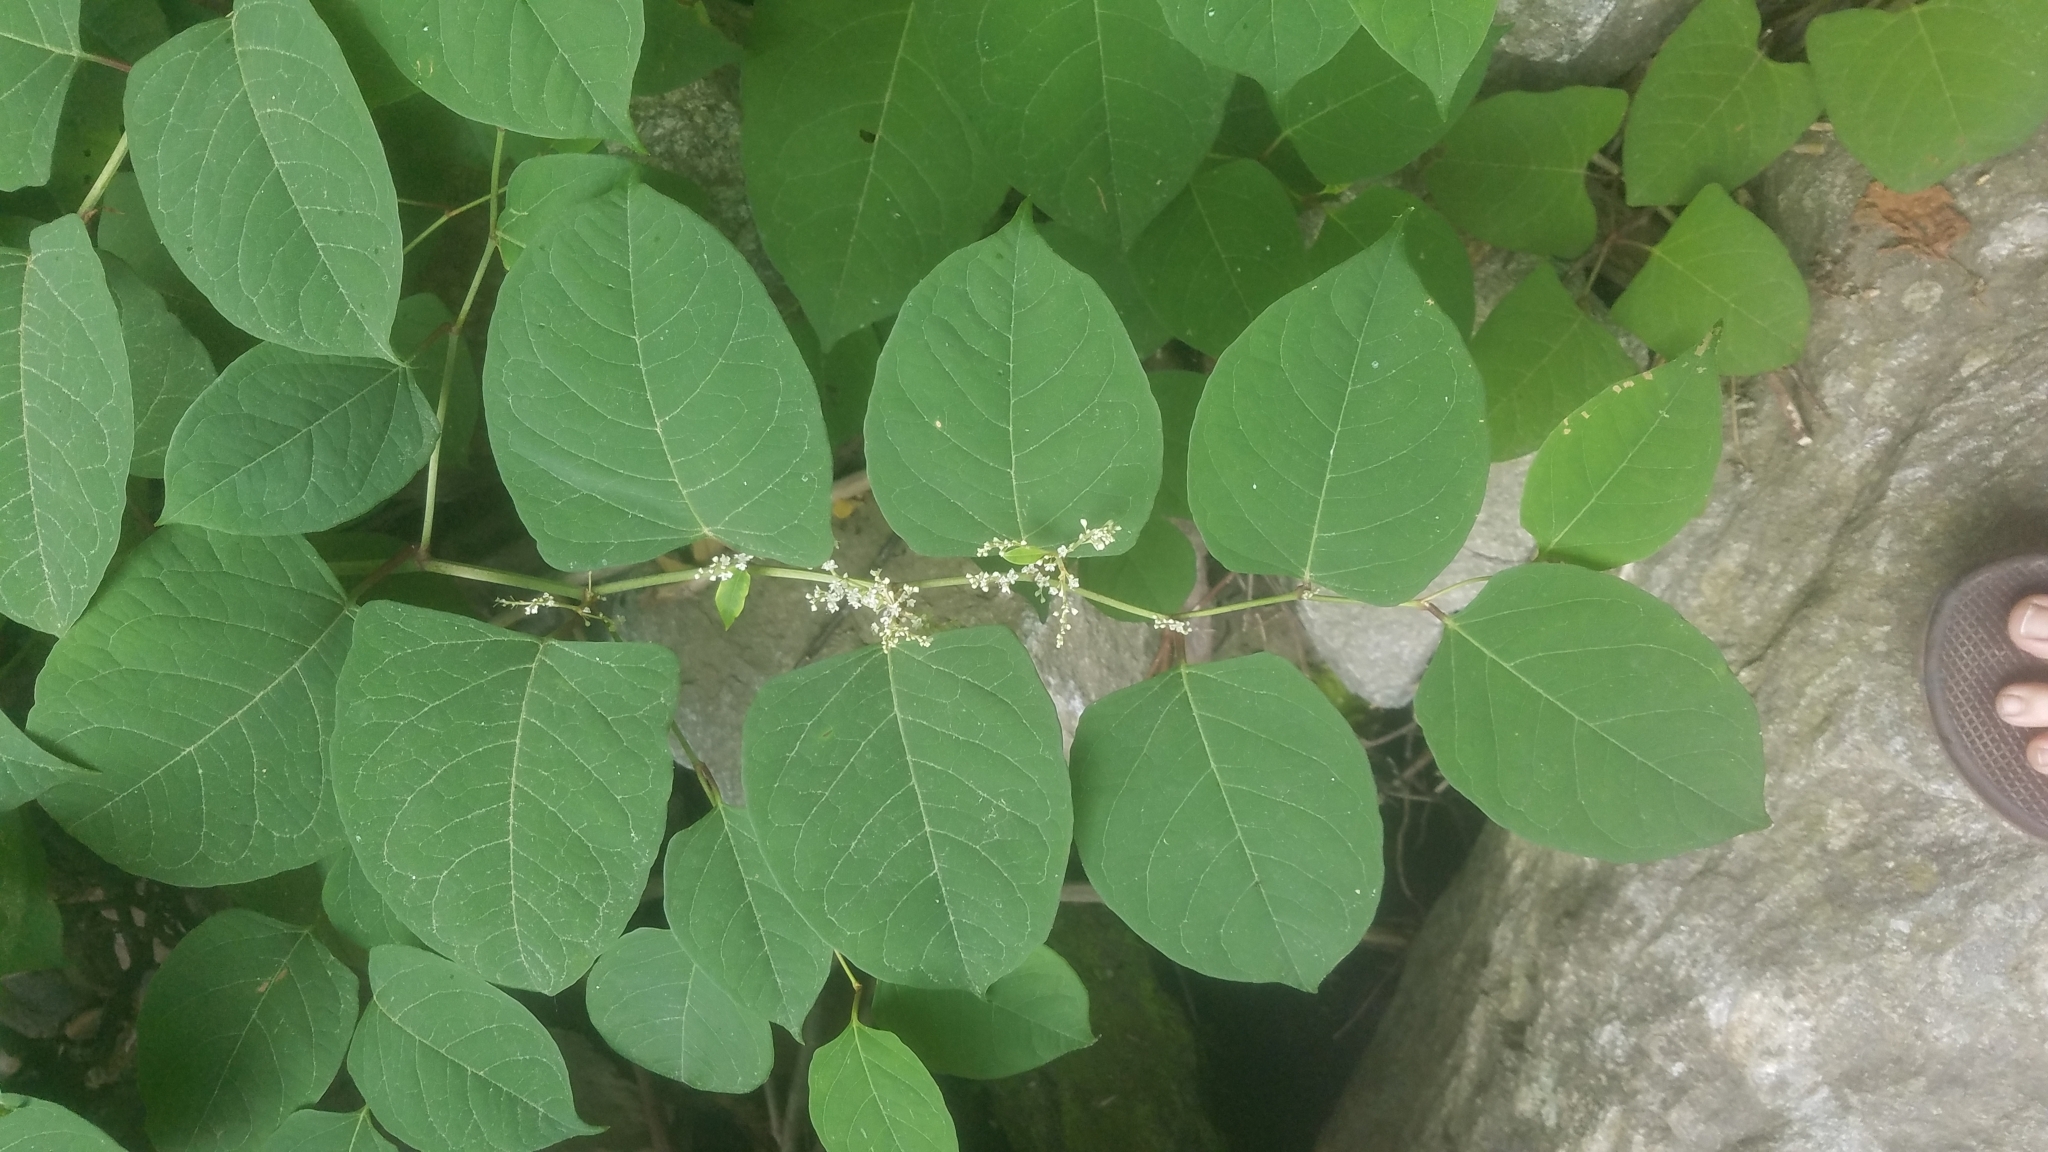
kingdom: Plantae
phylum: Tracheophyta
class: Magnoliopsida
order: Caryophyllales
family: Polygonaceae
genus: Reynoutria
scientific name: Reynoutria japonica
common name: Japanese knotweed
